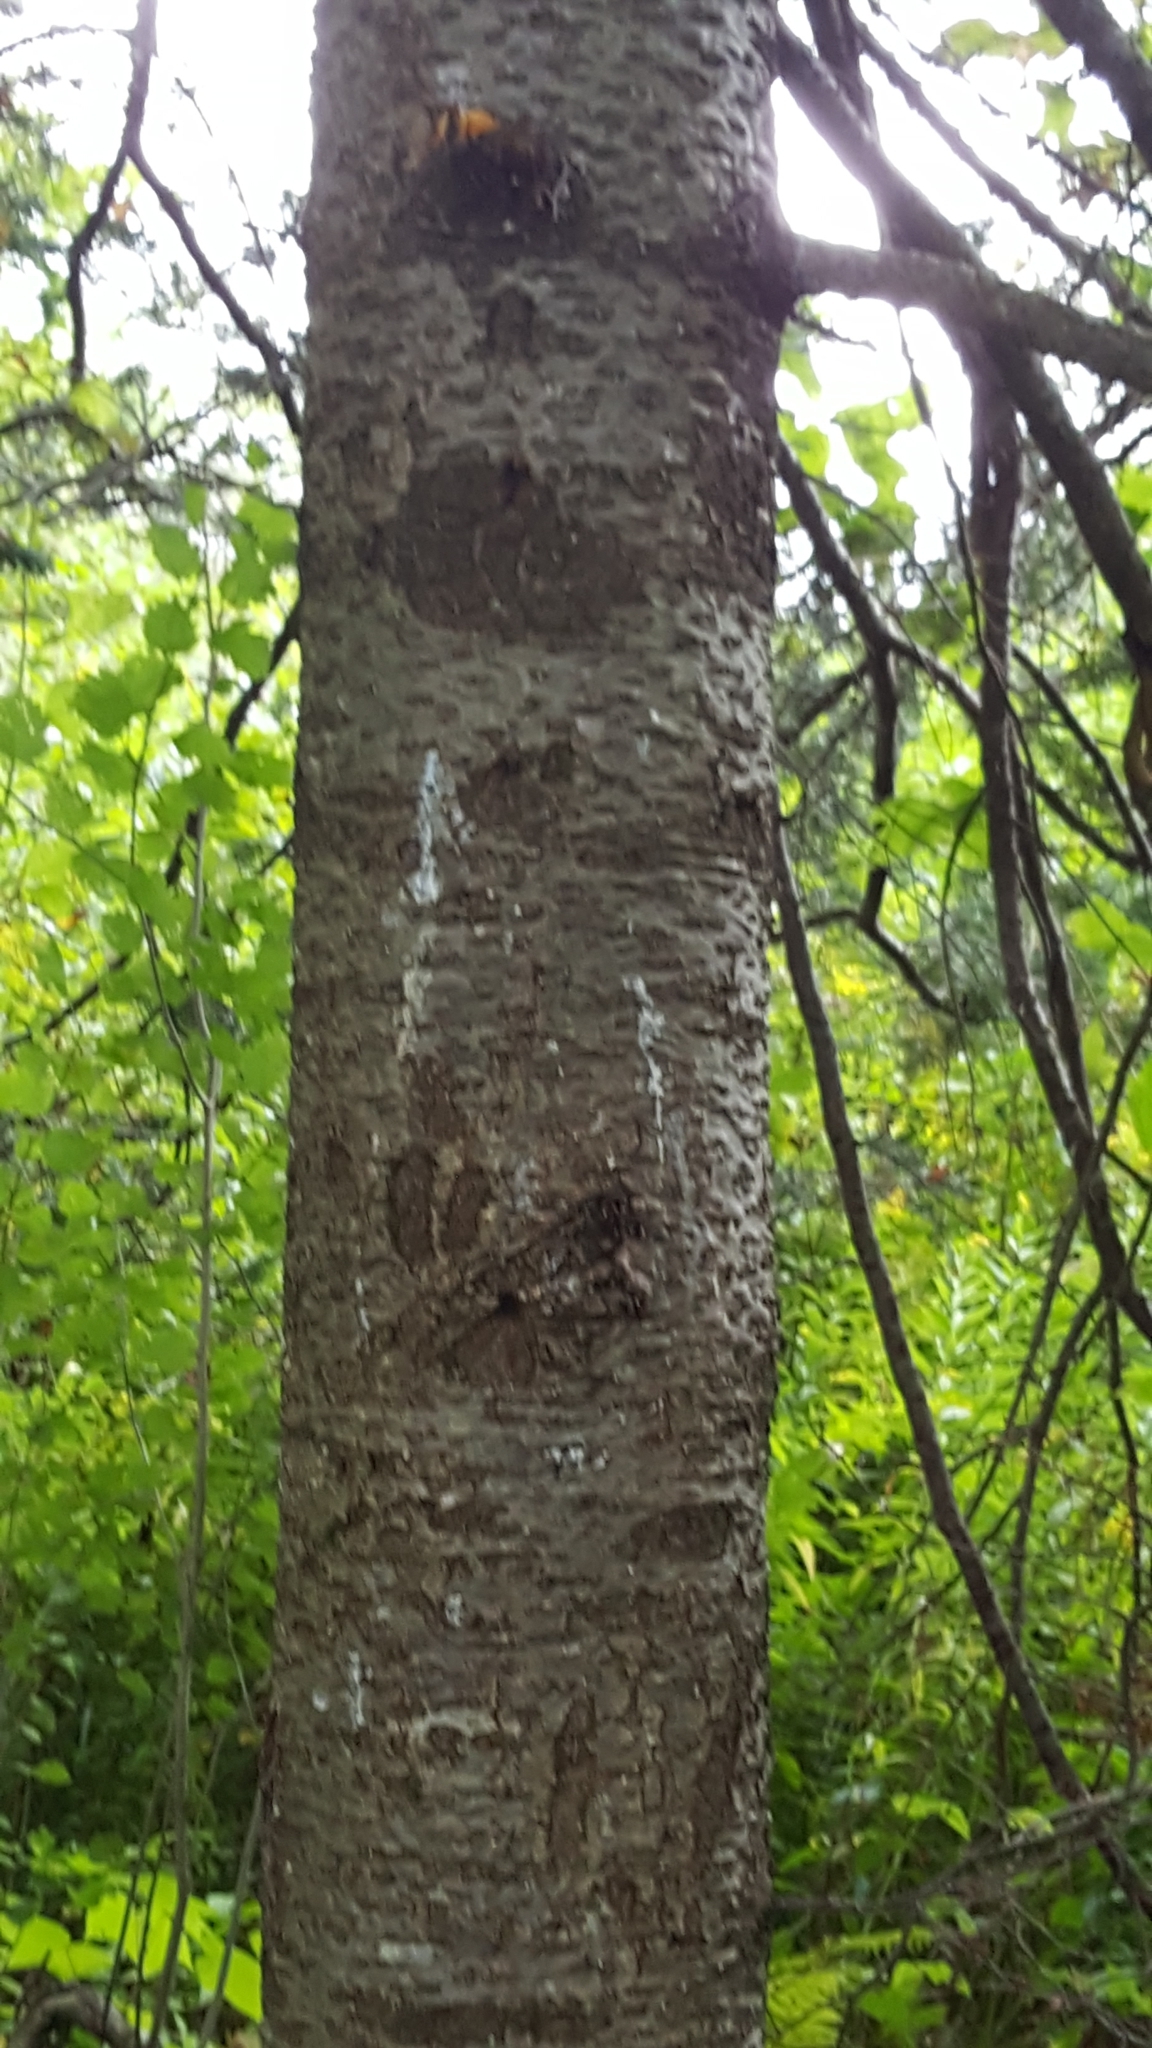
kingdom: Plantae
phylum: Tracheophyta
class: Pinopsida
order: Pinales
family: Pinaceae
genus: Abies
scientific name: Abies balsamea
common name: Balsam fir
